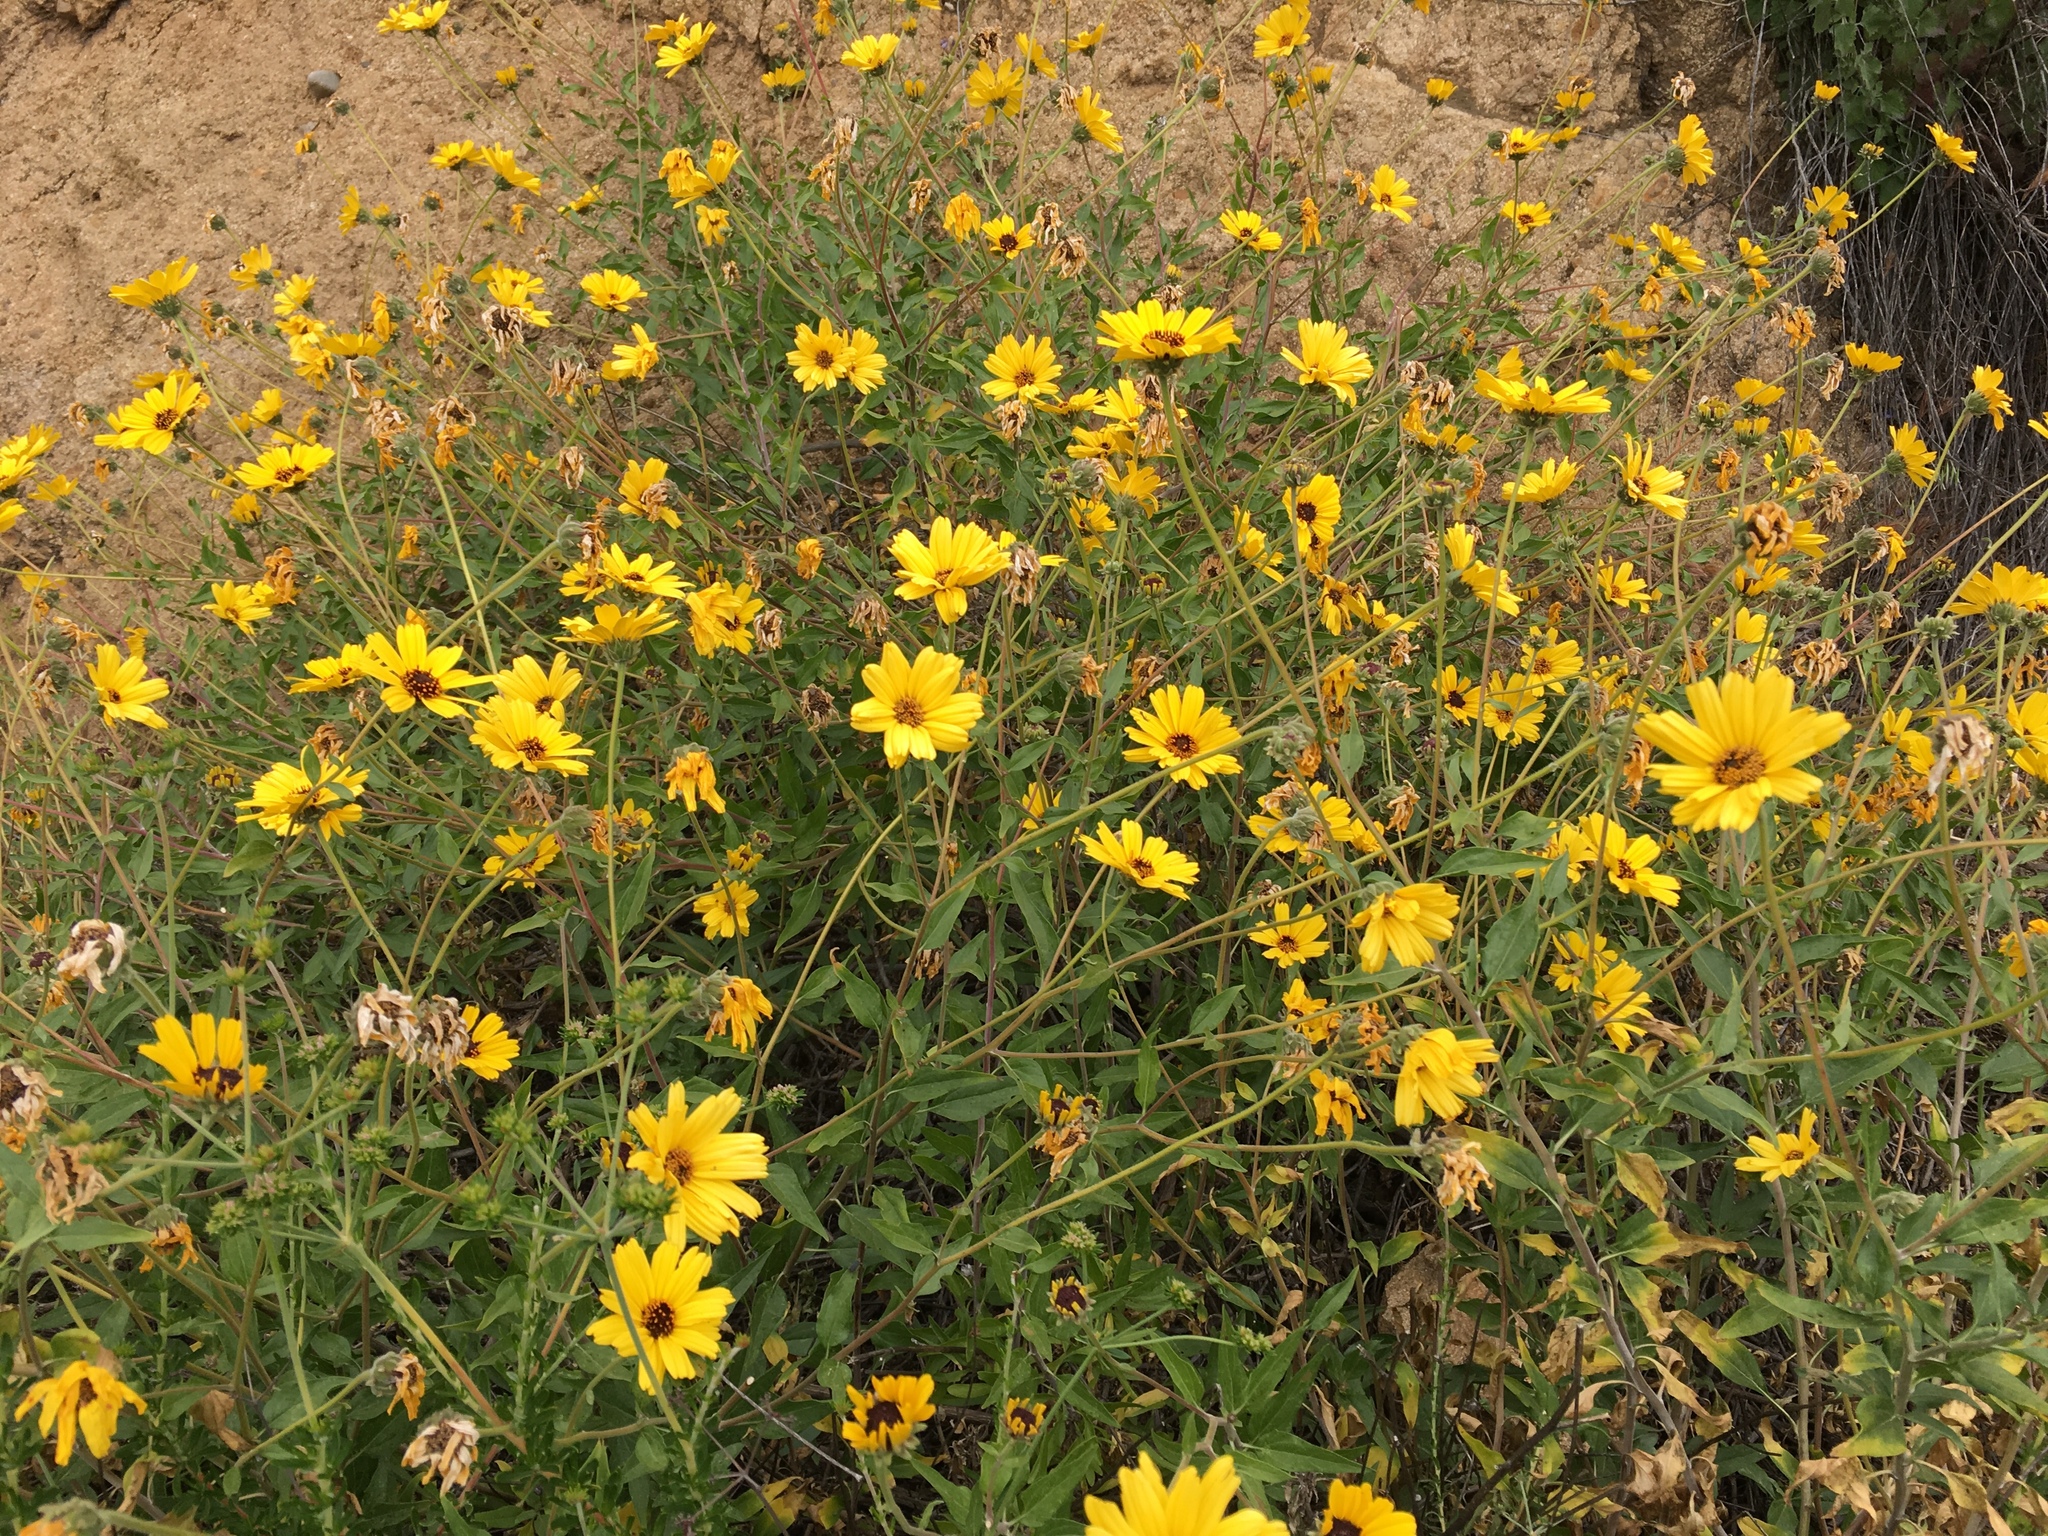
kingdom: Plantae
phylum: Tracheophyta
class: Magnoliopsida
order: Asterales
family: Asteraceae
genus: Encelia
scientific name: Encelia californica
